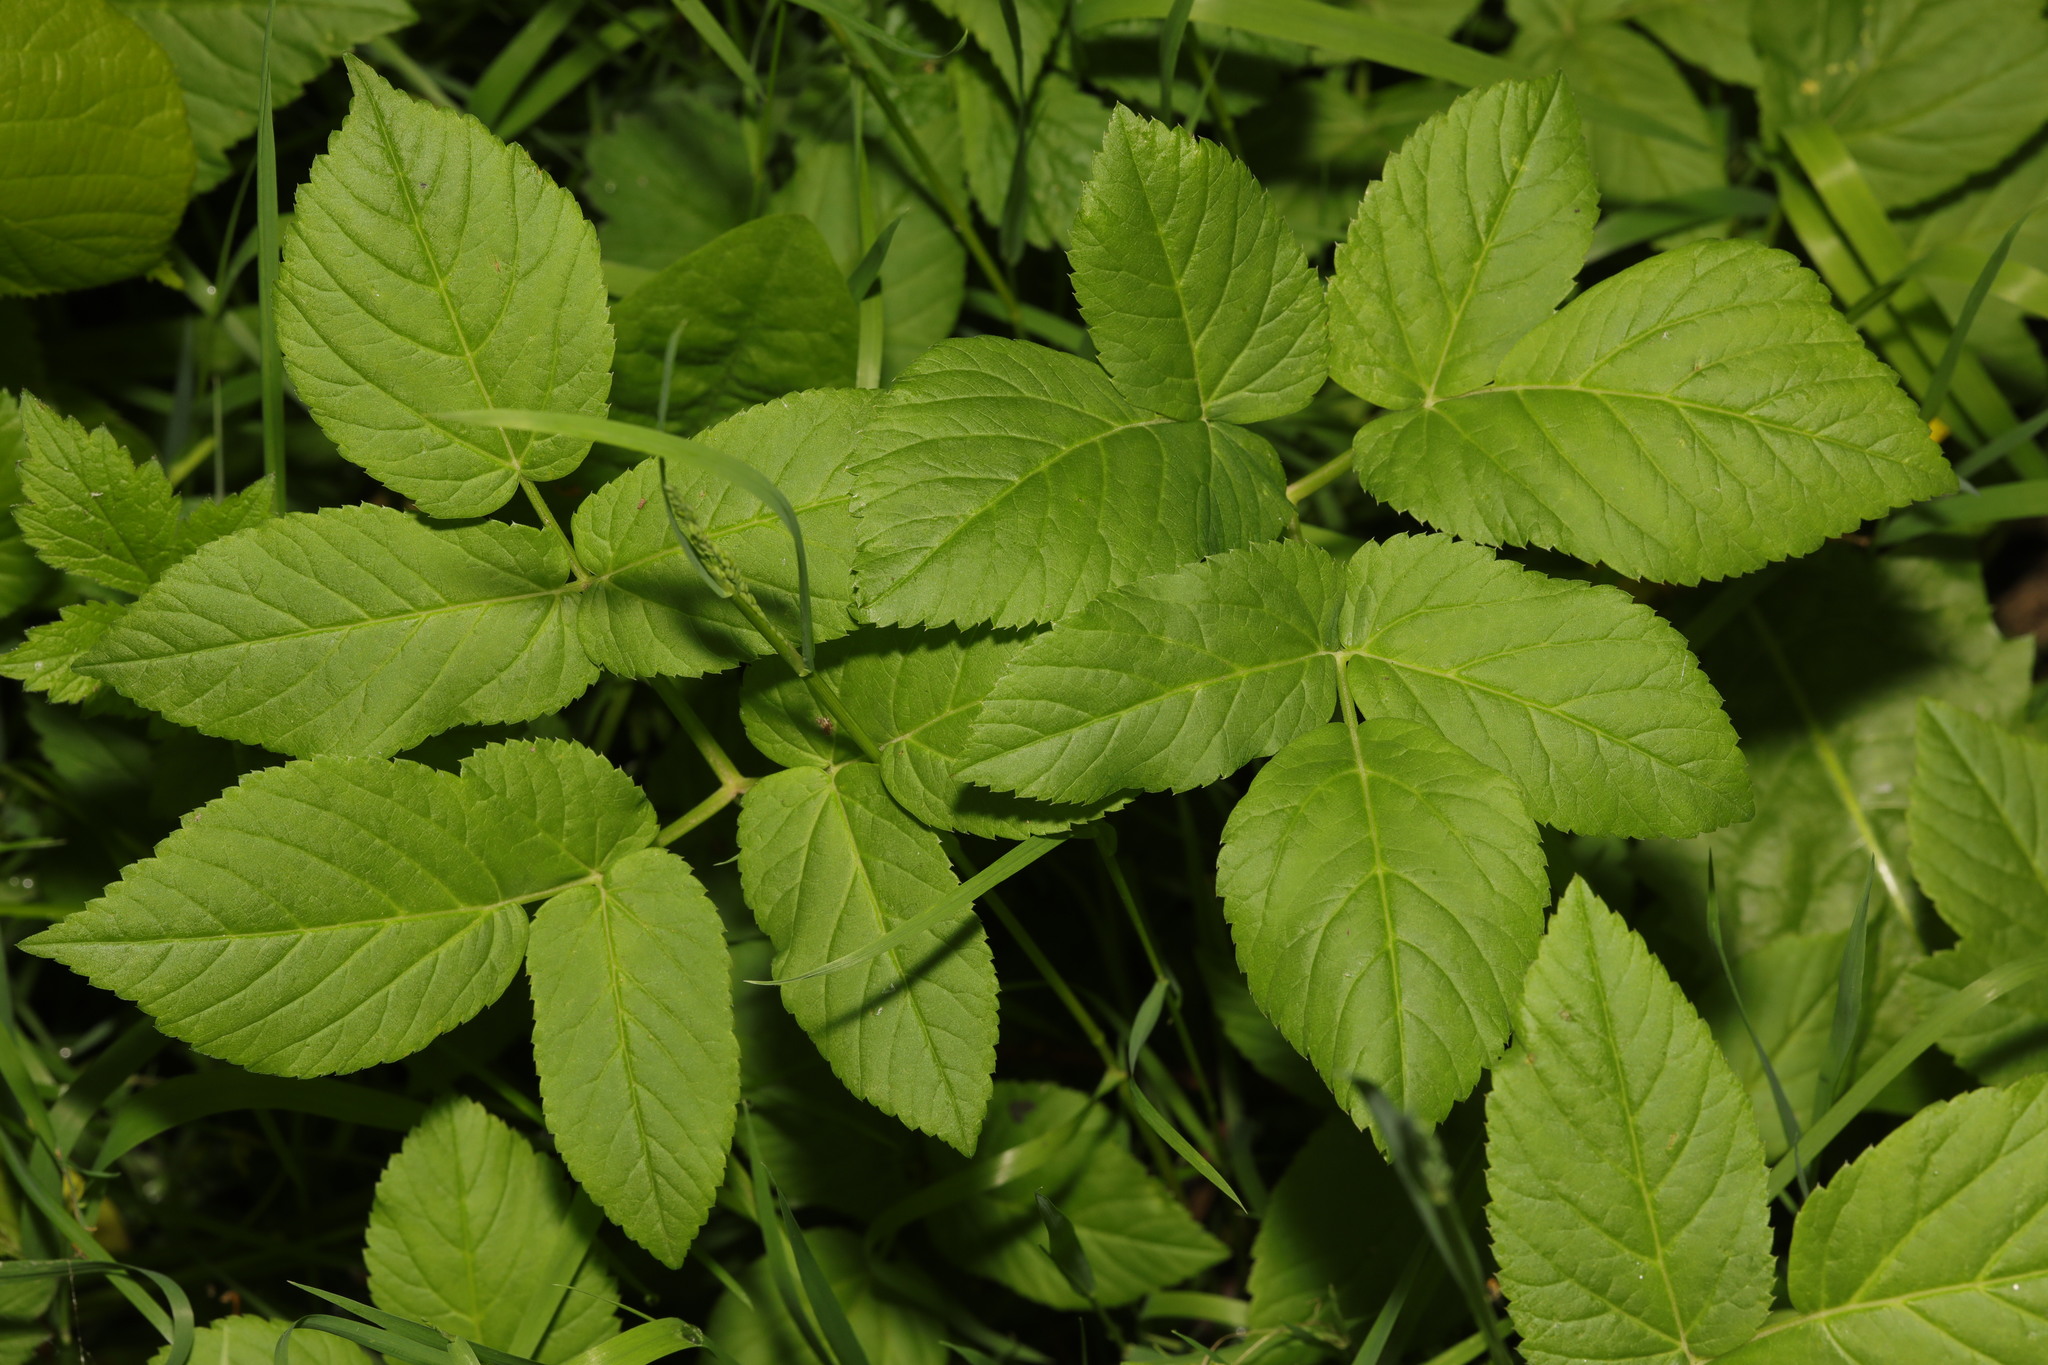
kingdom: Plantae
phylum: Tracheophyta
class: Magnoliopsida
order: Apiales
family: Apiaceae
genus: Aegopodium
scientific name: Aegopodium podagraria
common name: Ground-elder
